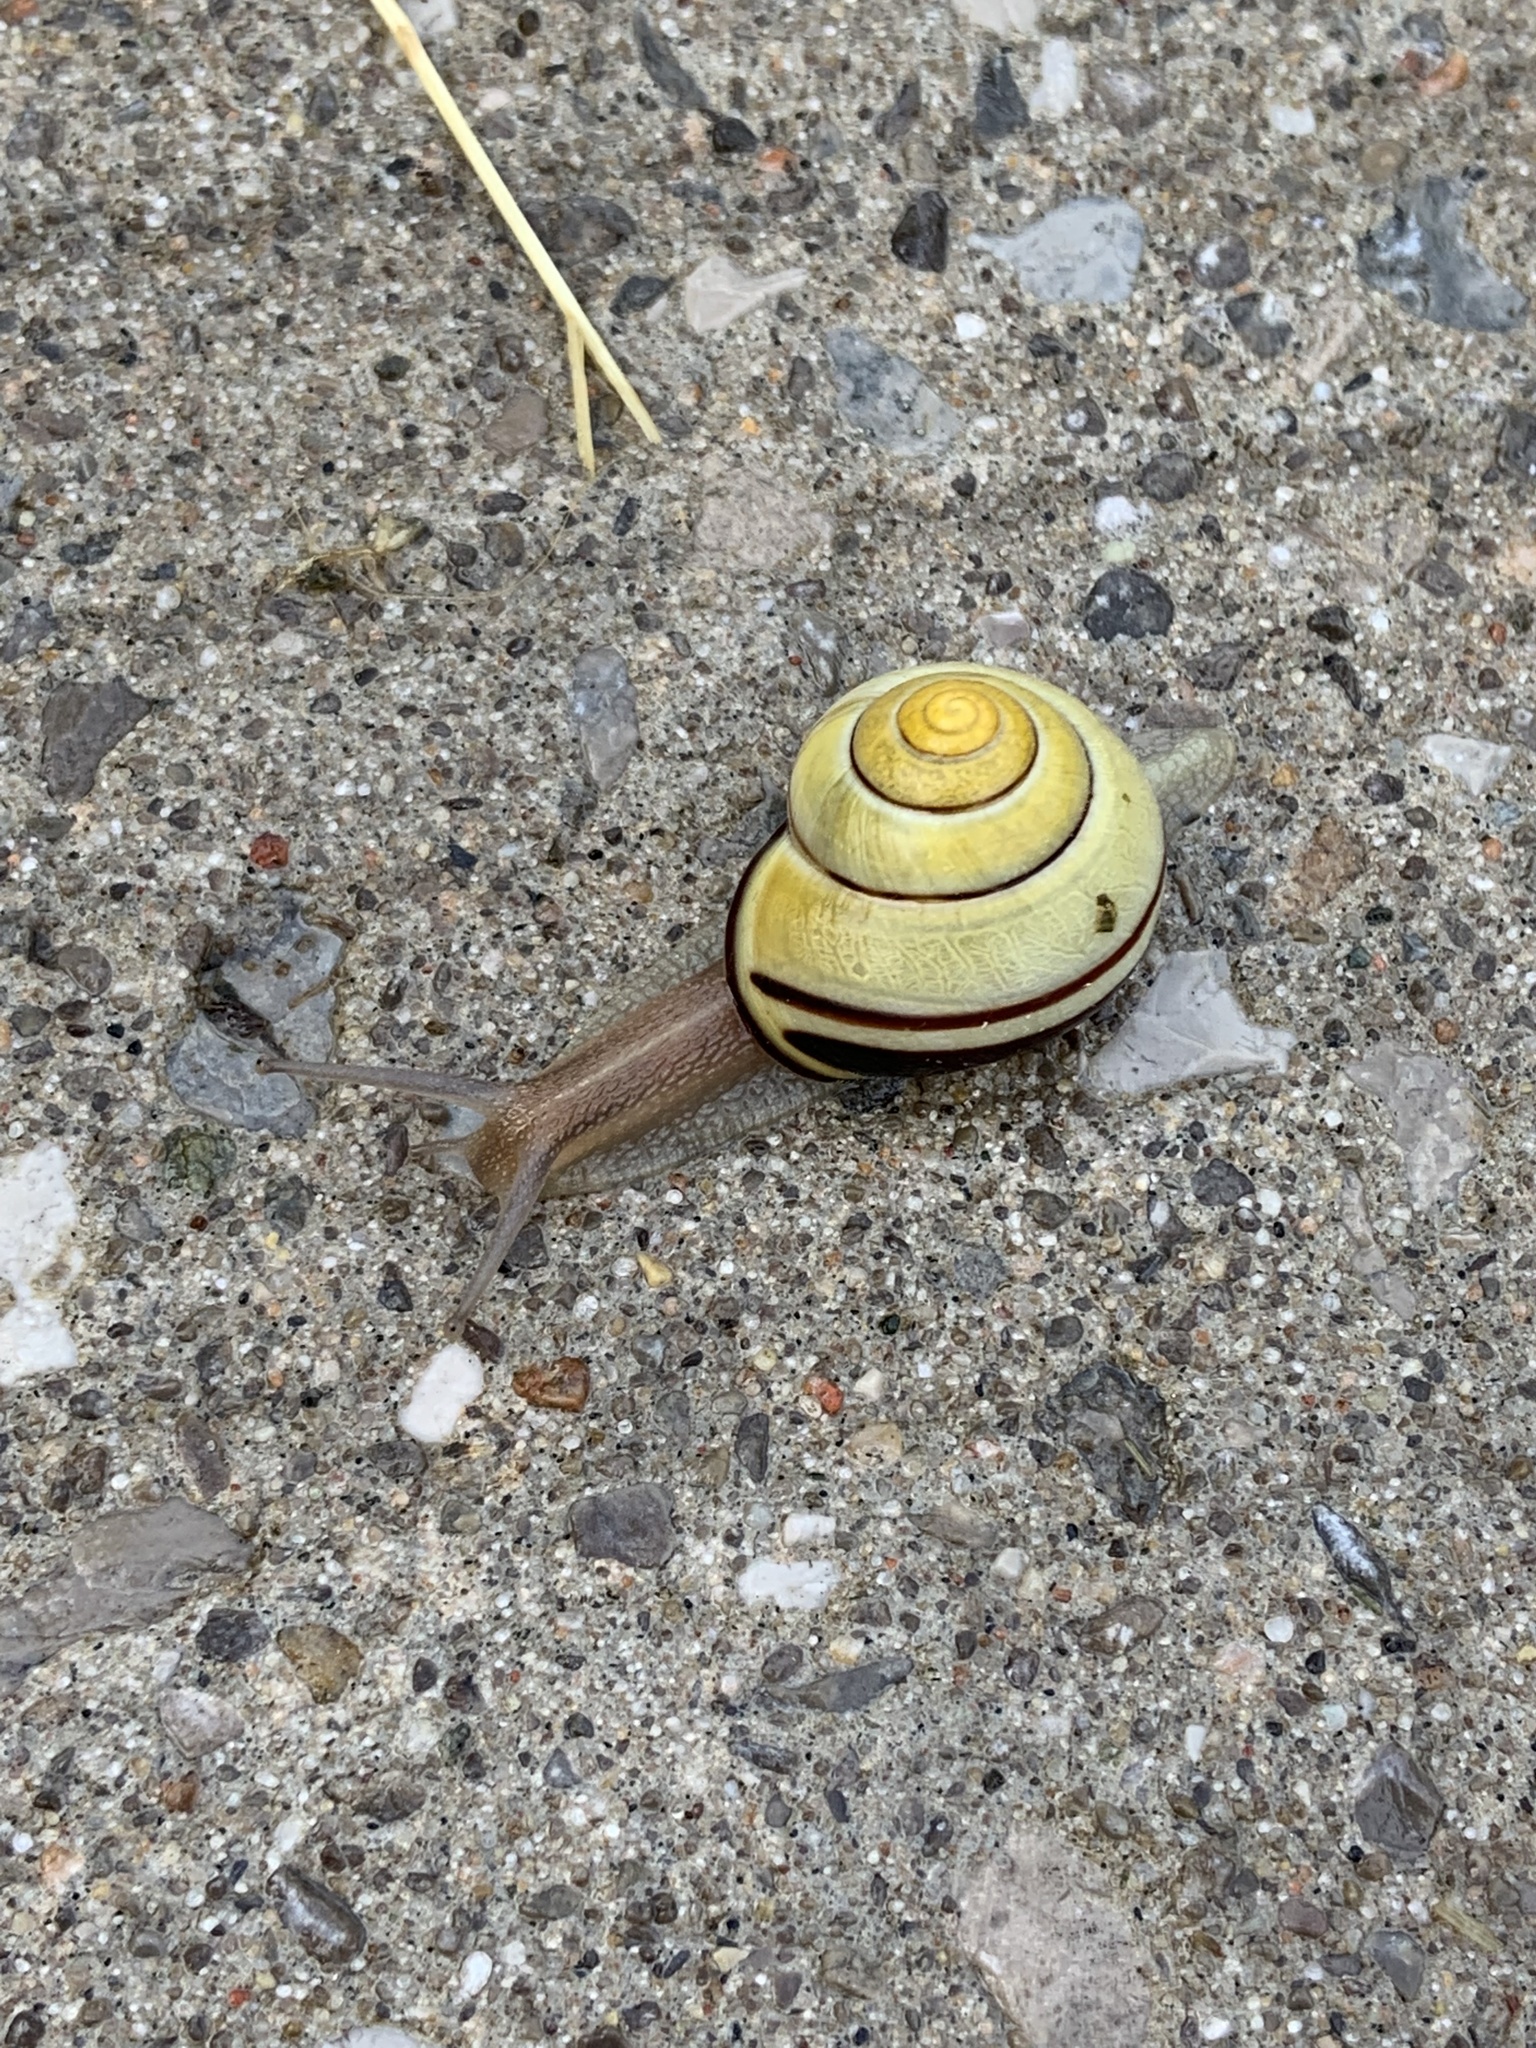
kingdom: Animalia
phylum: Mollusca
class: Gastropoda
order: Stylommatophora
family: Helicidae
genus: Cepaea
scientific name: Cepaea nemoralis
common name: Grovesnail
